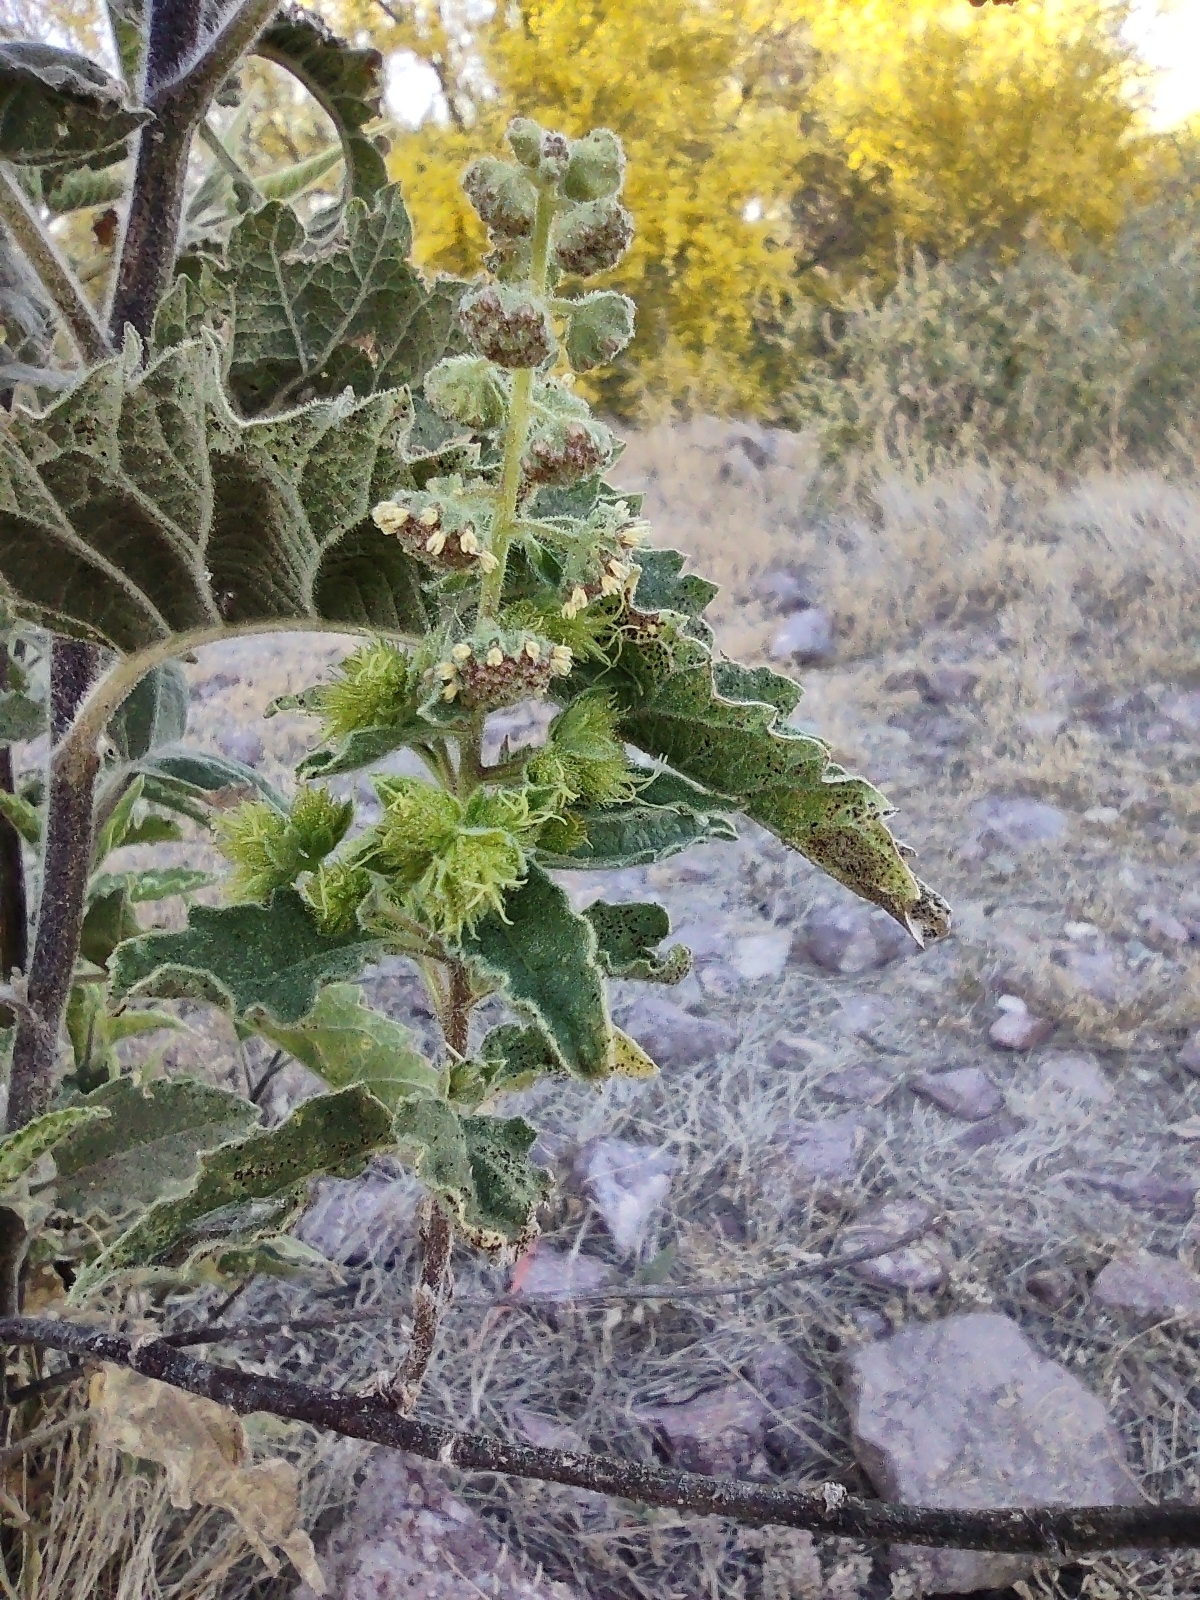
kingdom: Plantae
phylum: Tracheophyta
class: Magnoliopsida
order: Asterales
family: Asteraceae
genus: Ambrosia
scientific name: Ambrosia ambrosioides
